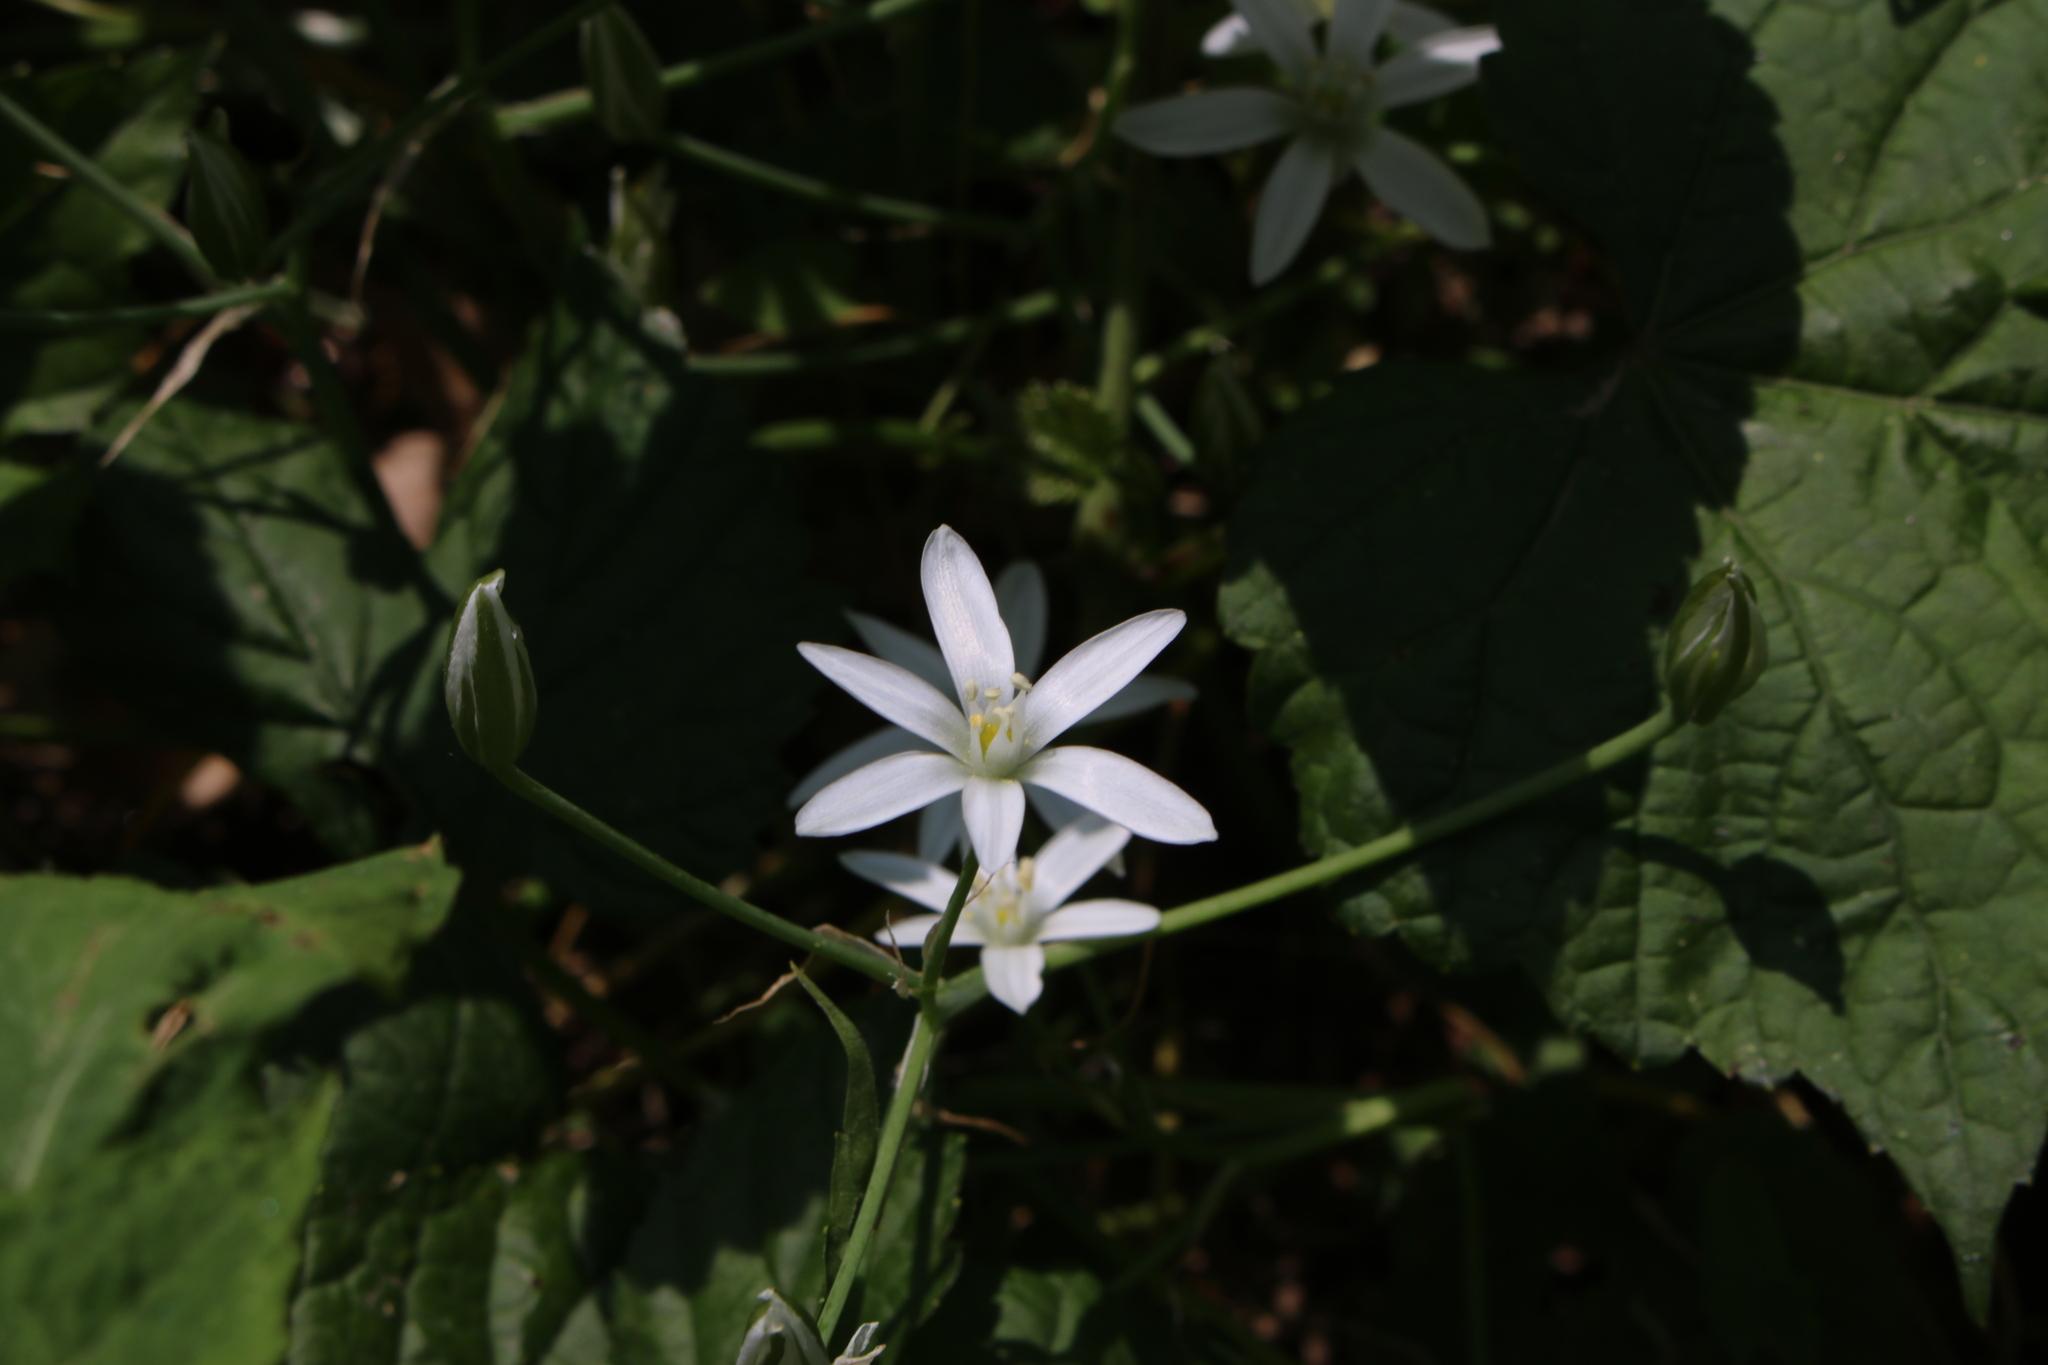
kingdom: Plantae
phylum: Tracheophyta
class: Liliopsida
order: Asparagales
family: Asparagaceae
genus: Ornithogalum
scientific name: Ornithogalum umbellatum
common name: Garden star-of-bethlehem
